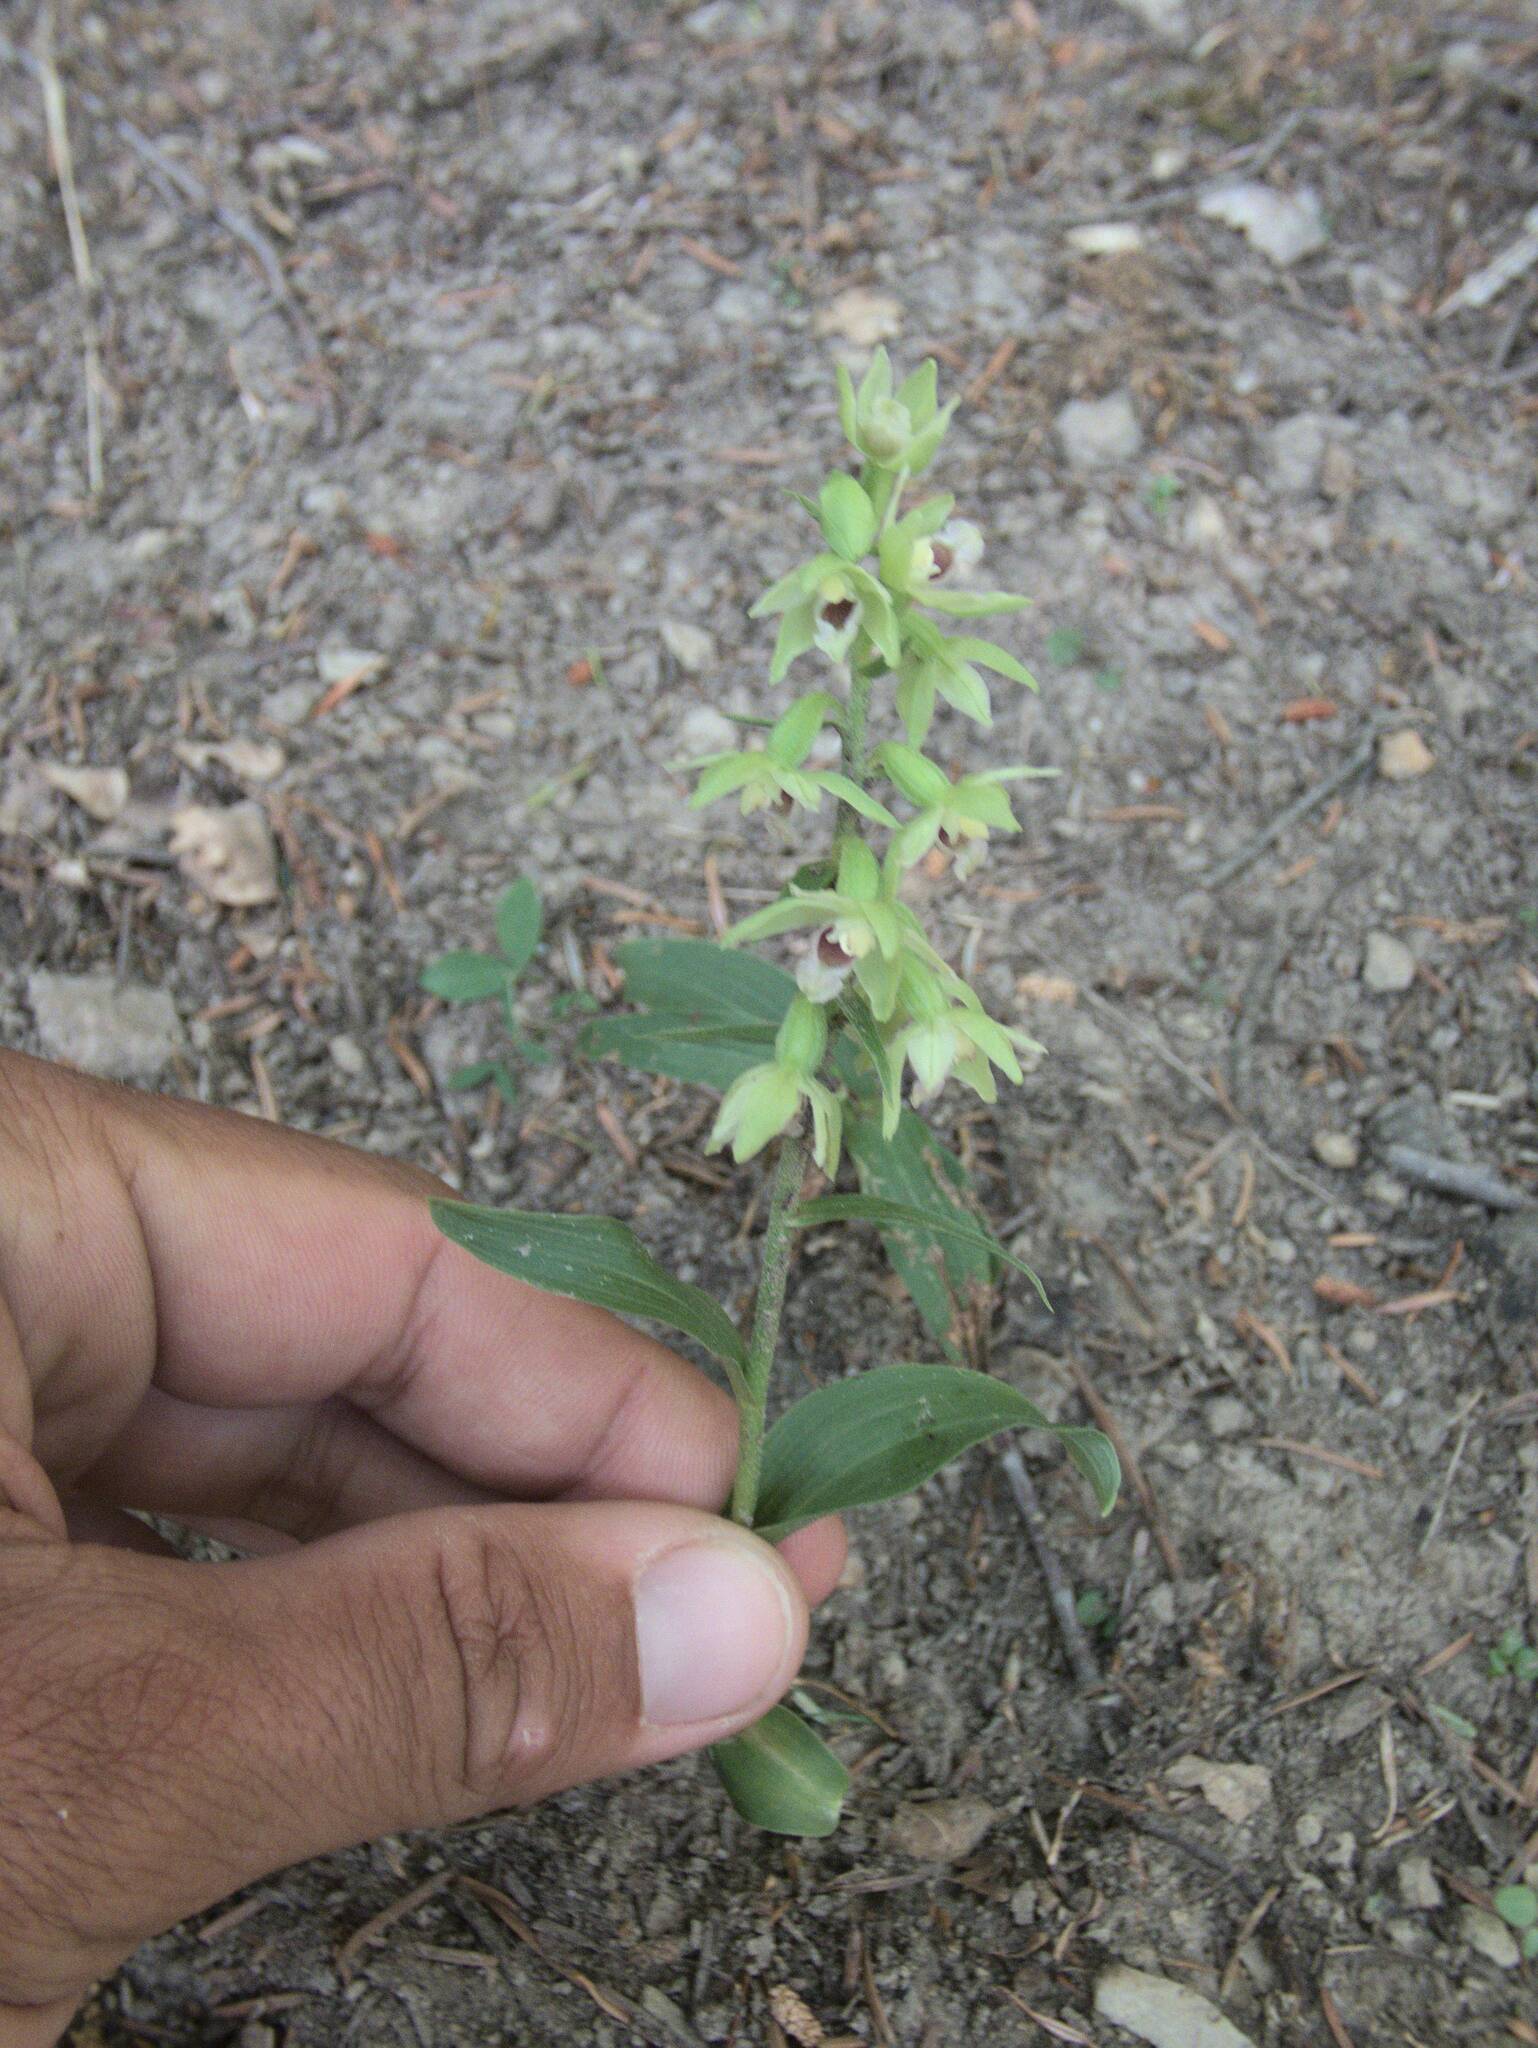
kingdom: Plantae
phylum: Tracheophyta
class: Liliopsida
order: Asparagales
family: Orchidaceae
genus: Epipactis
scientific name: Epipactis muelleri
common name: Mueller's epipactis
